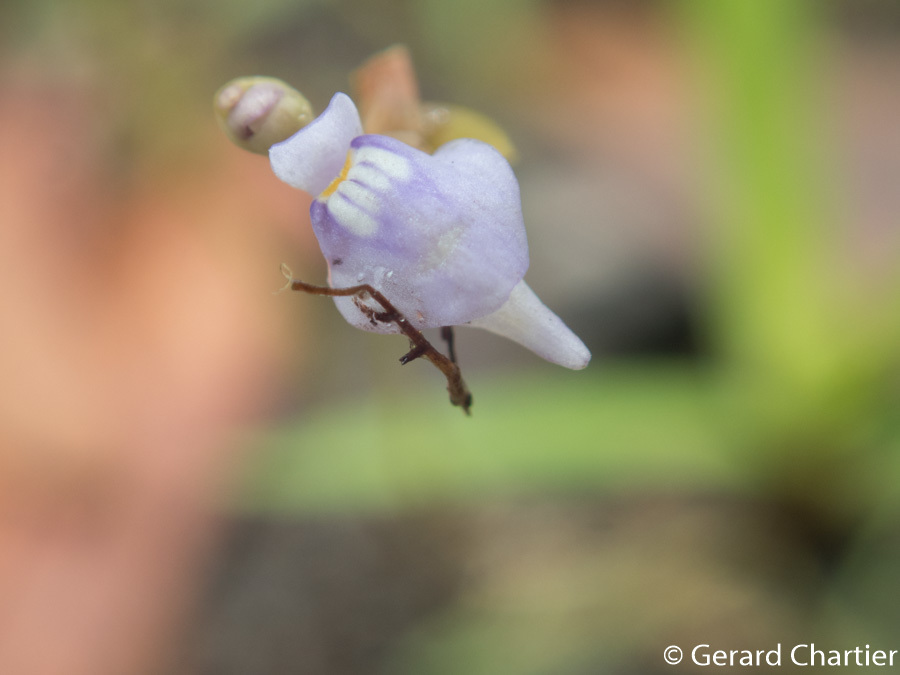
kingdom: Plantae
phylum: Tracheophyta
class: Magnoliopsida
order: Lamiales
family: Lentibulariaceae
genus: Utricularia
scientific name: Utricularia caerulea
